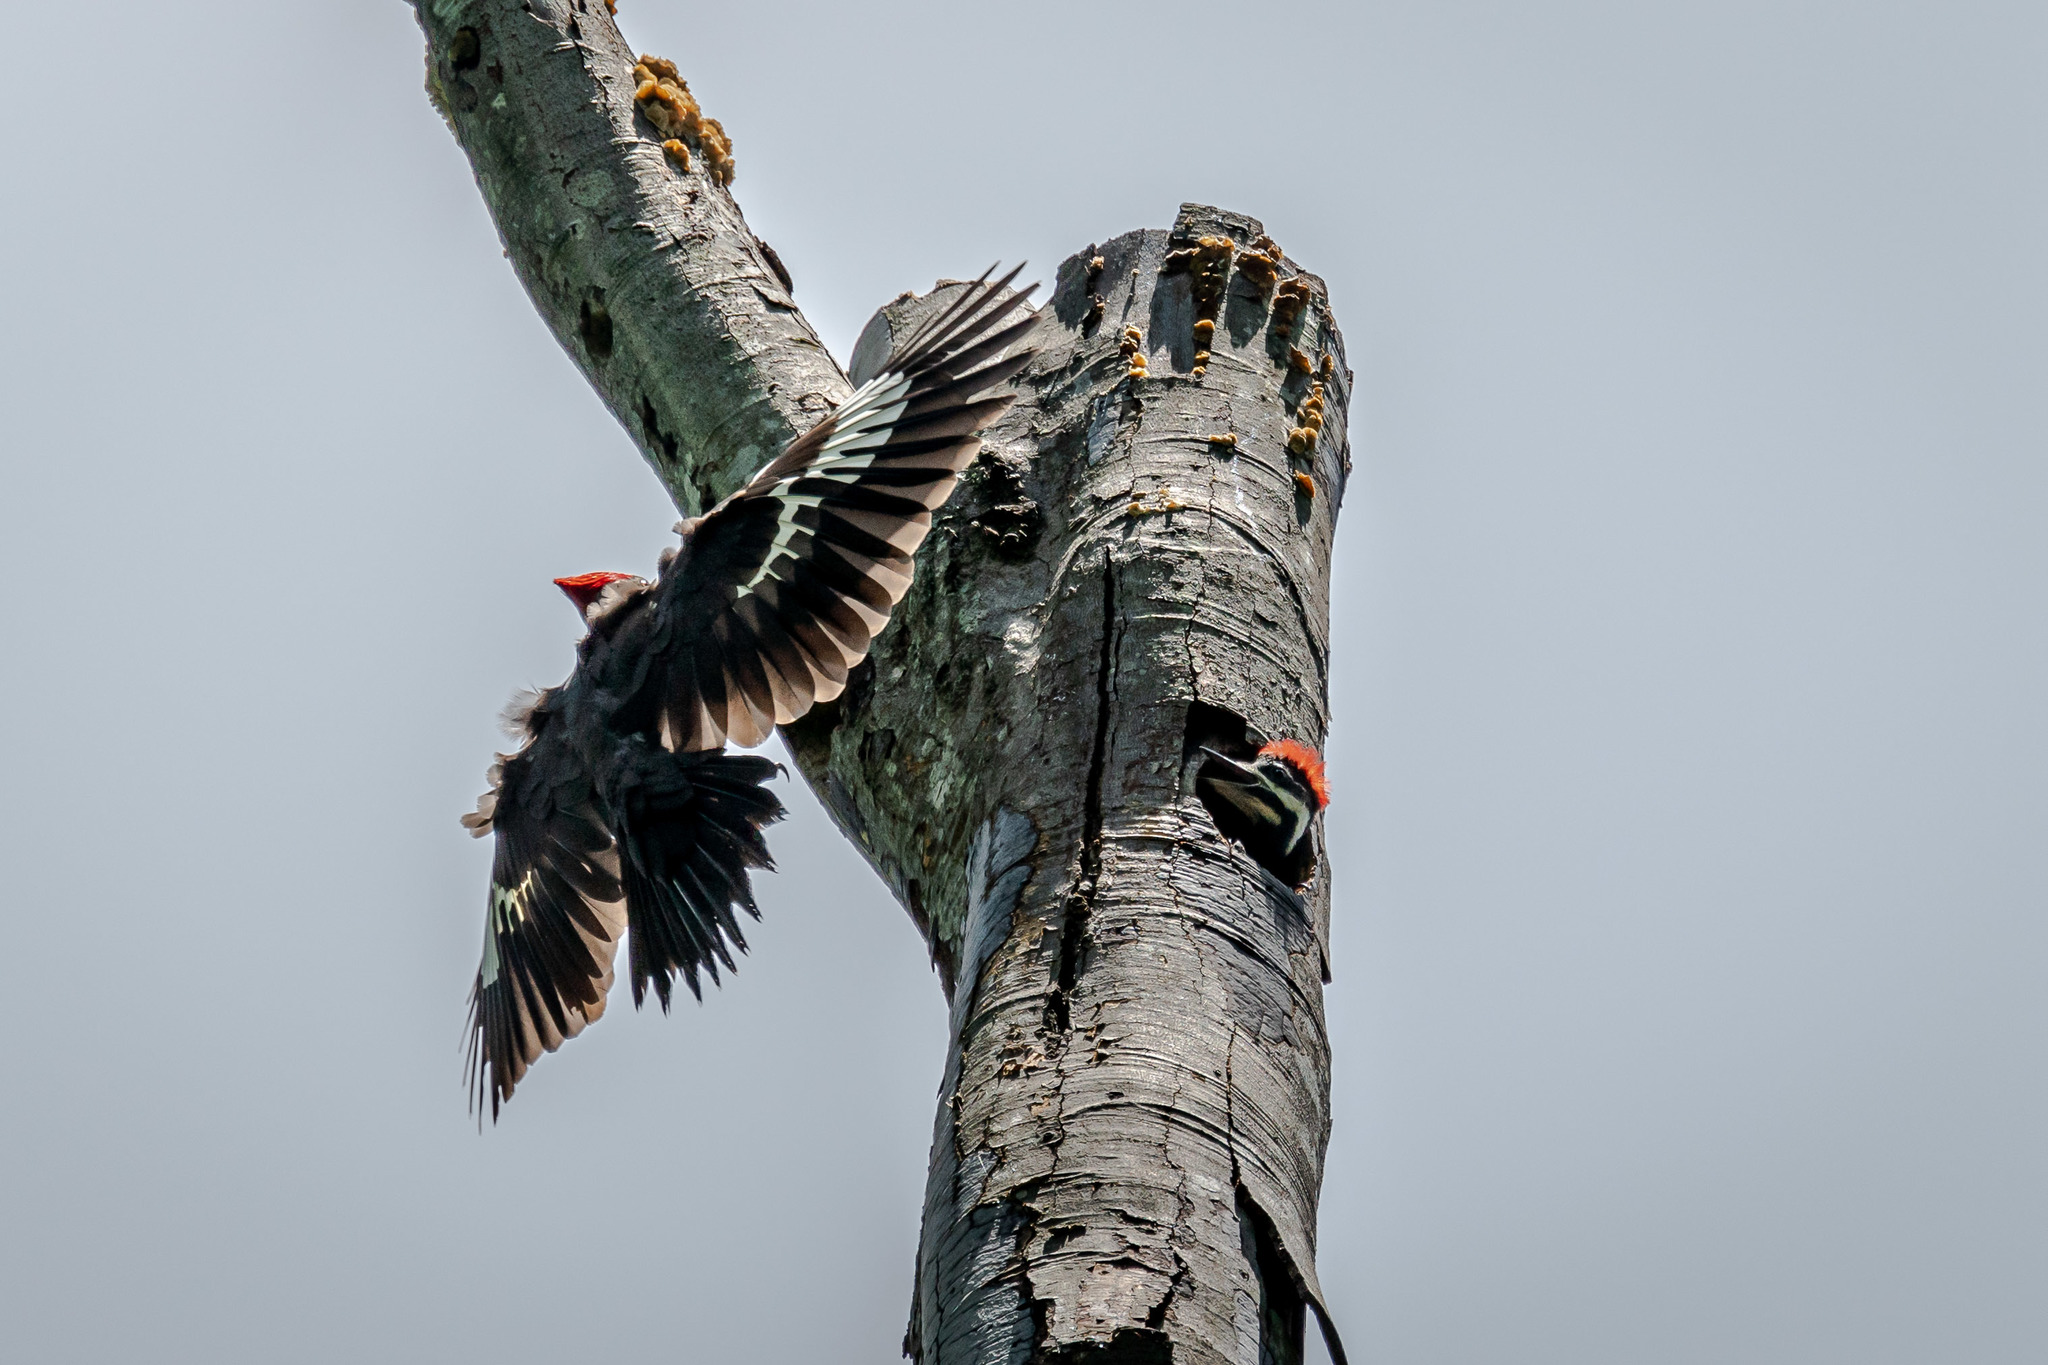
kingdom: Animalia
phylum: Chordata
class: Aves
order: Piciformes
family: Picidae
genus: Dryocopus
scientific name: Dryocopus pileatus
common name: Pileated woodpecker
